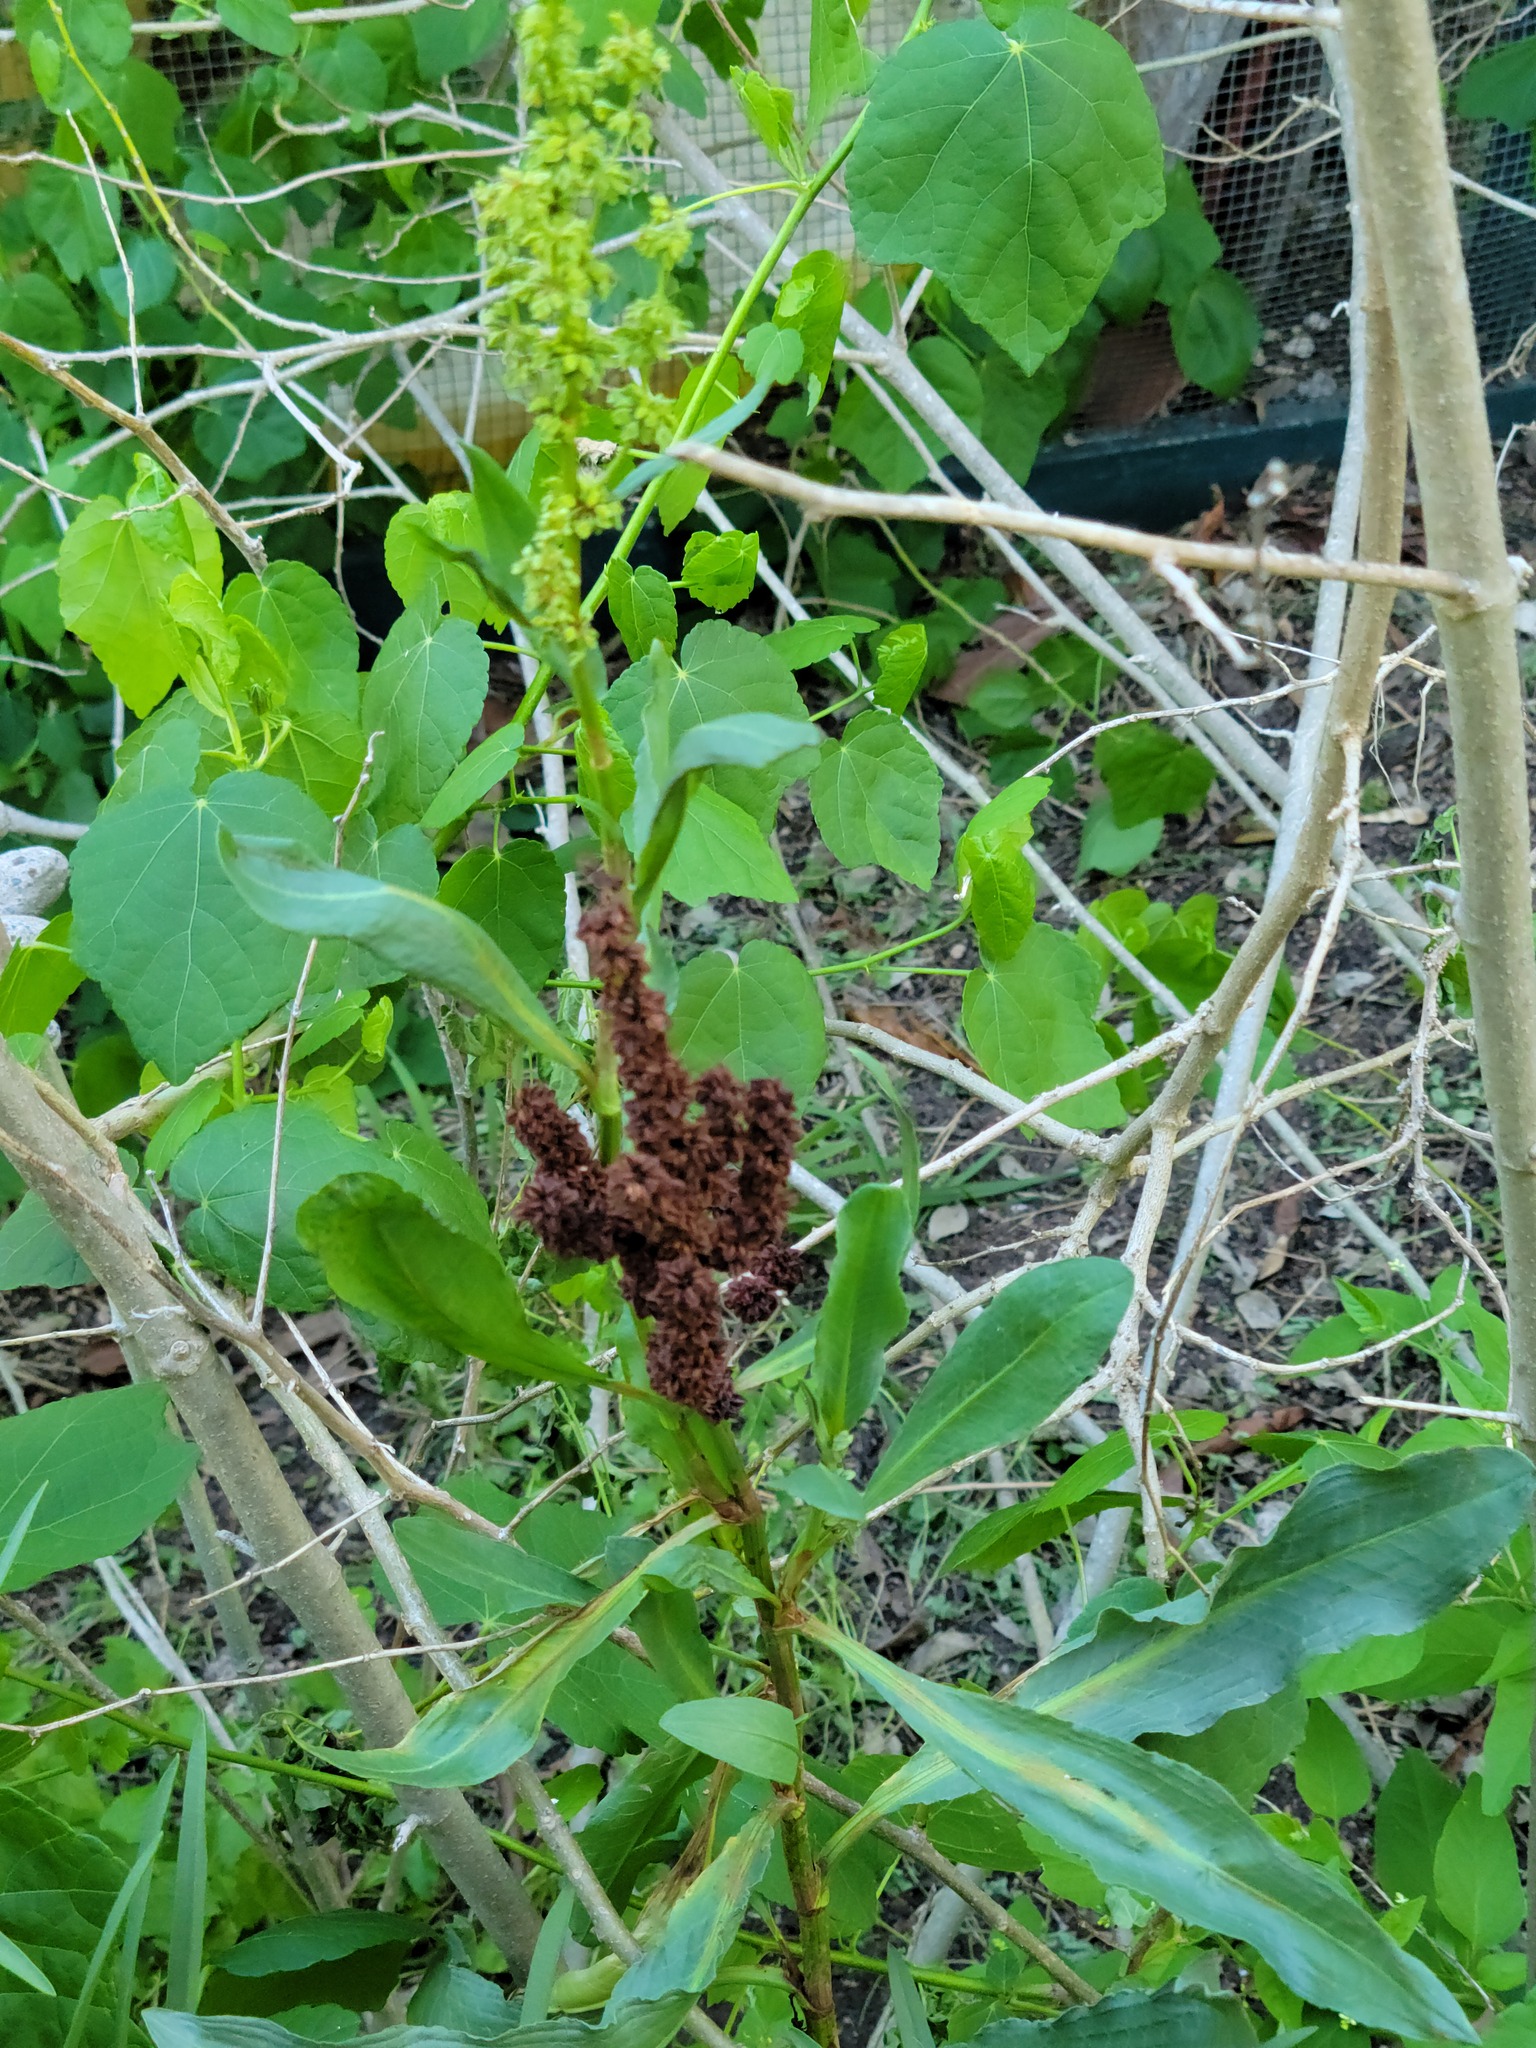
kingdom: Plantae
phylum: Tracheophyta
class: Magnoliopsida
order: Caryophyllales
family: Polygonaceae
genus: Rumex
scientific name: Rumex crispus
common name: Curled dock
